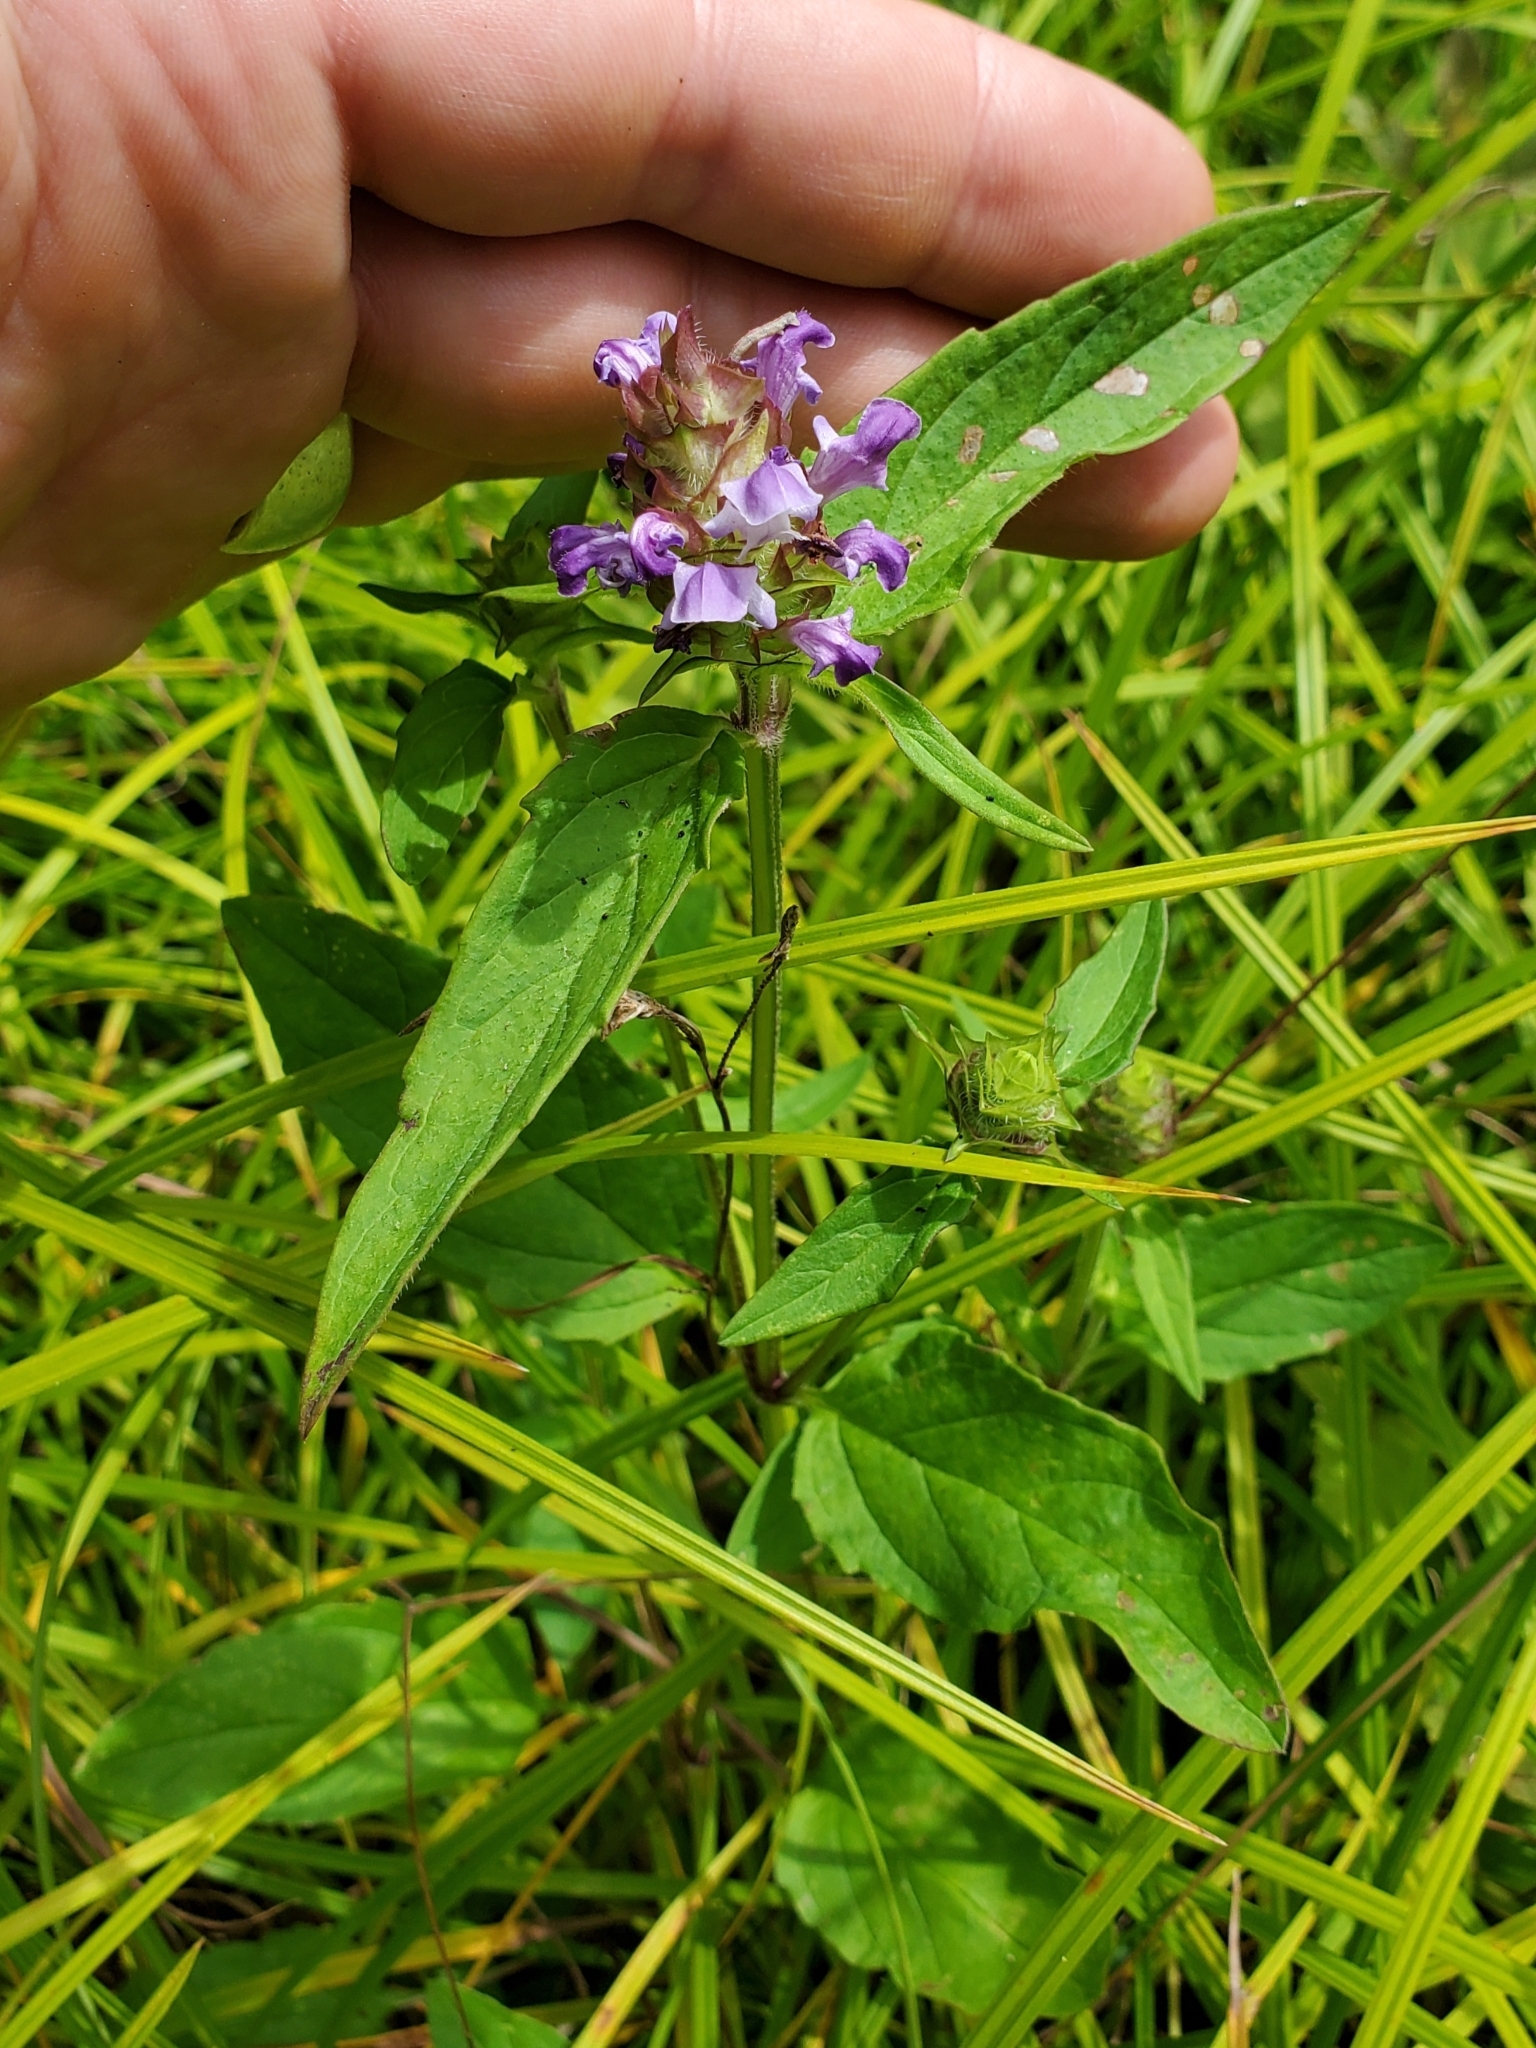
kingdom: Plantae
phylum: Tracheophyta
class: Magnoliopsida
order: Lamiales
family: Lamiaceae
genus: Prunella
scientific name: Prunella vulgaris
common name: Heal-all
